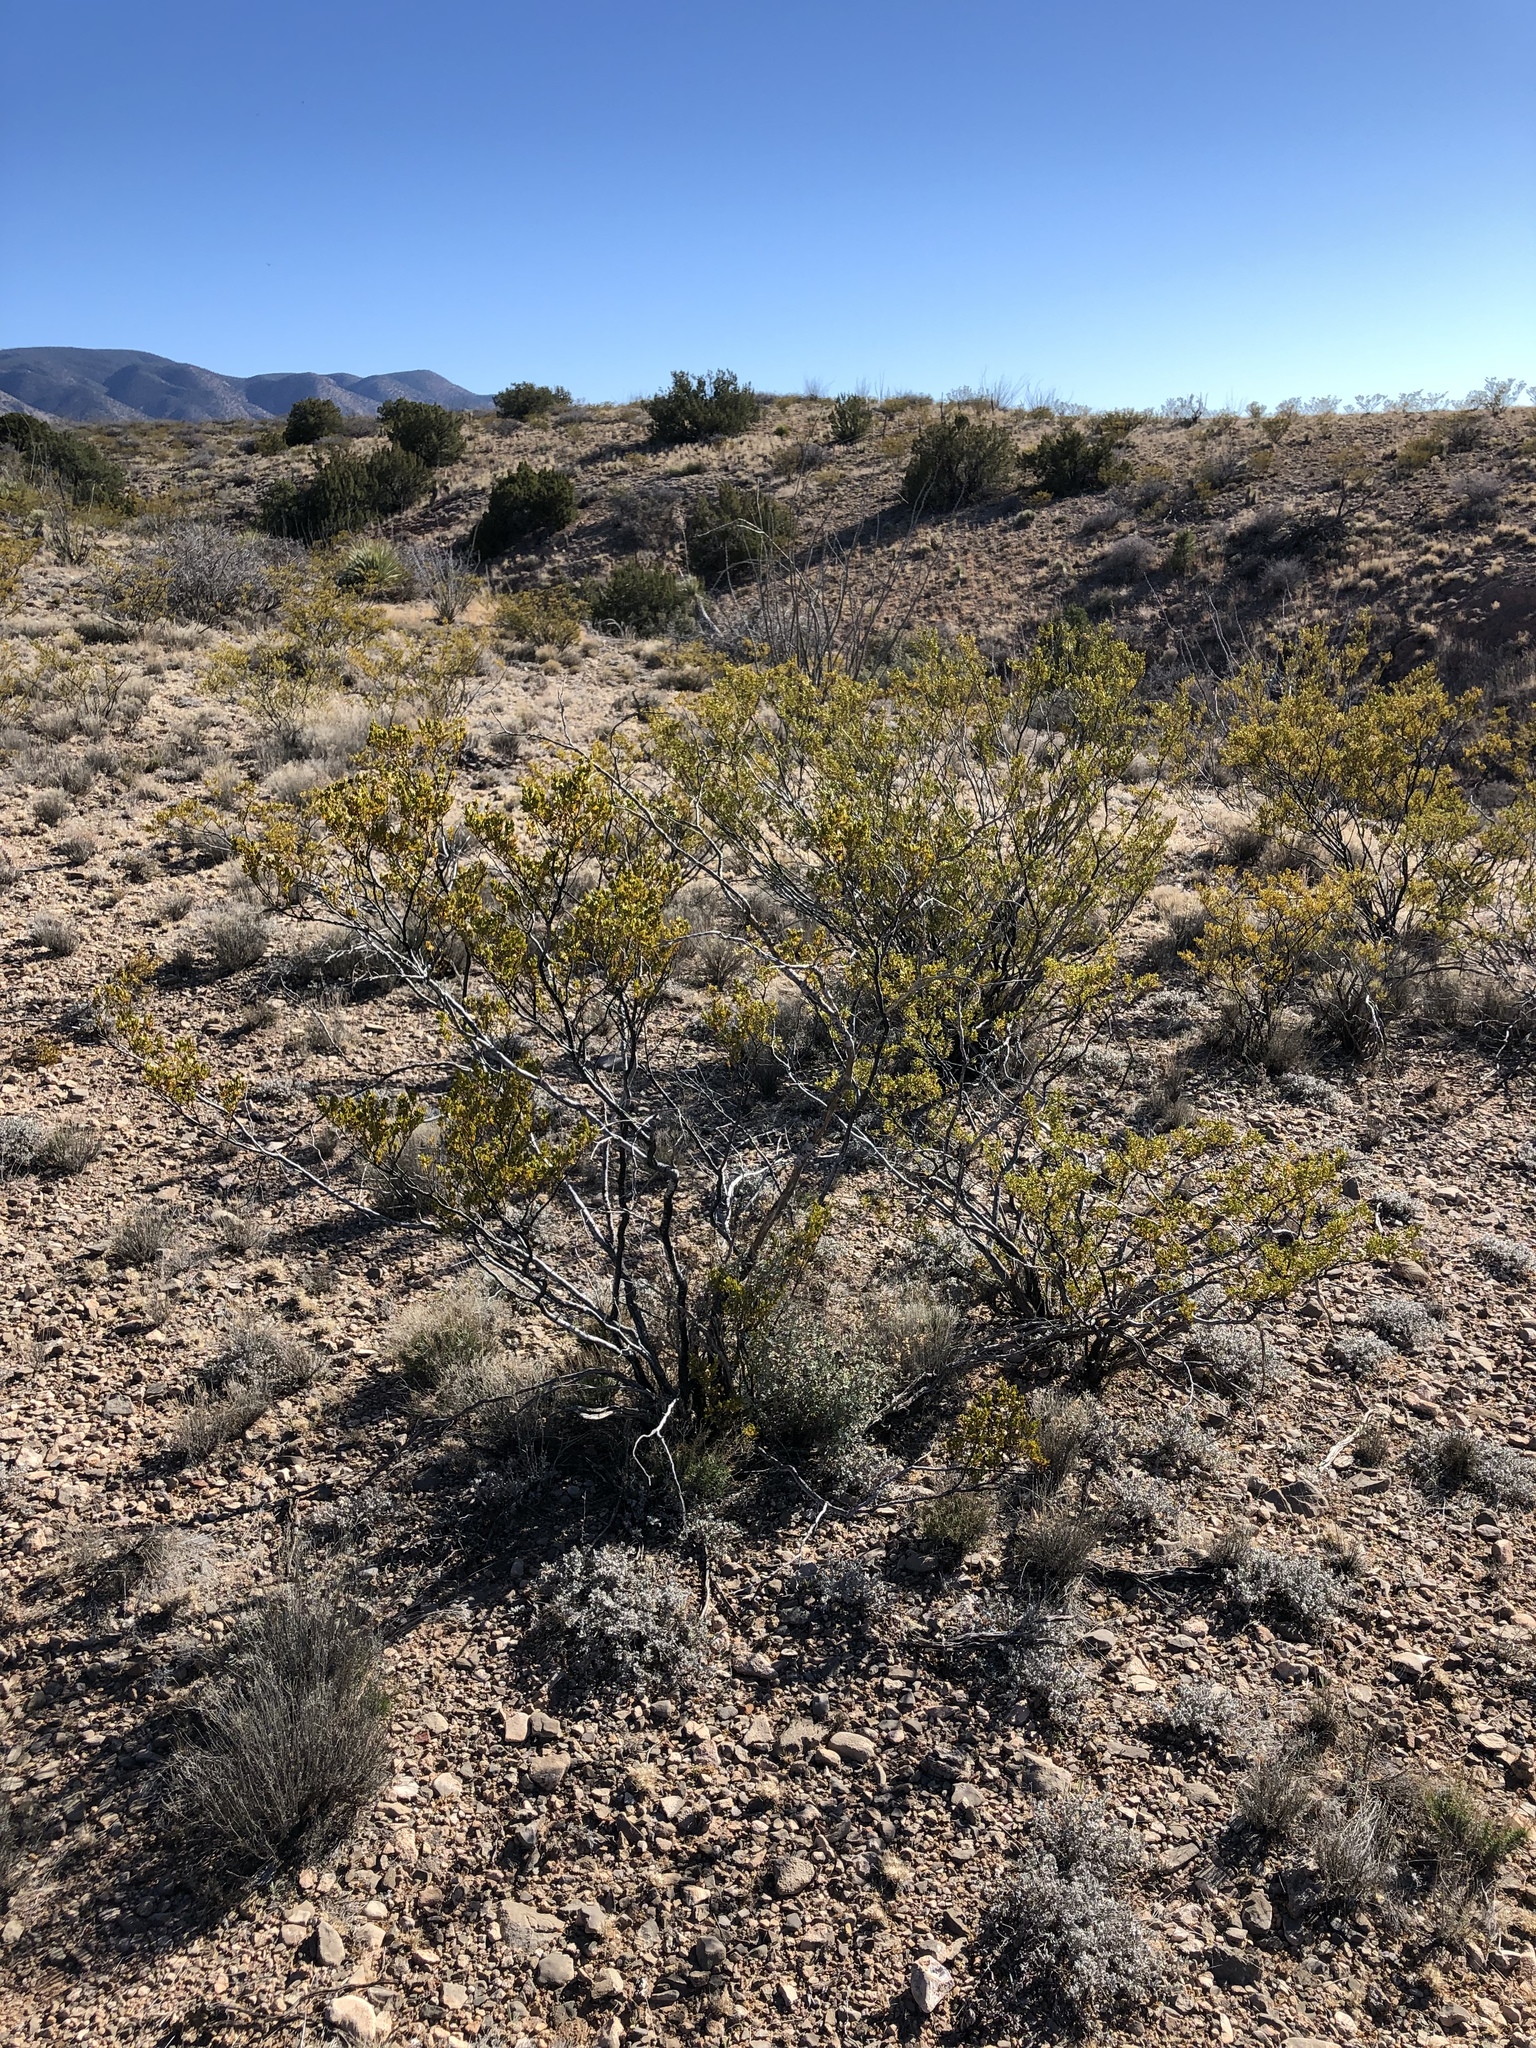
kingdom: Plantae
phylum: Tracheophyta
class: Magnoliopsida
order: Zygophyllales
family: Zygophyllaceae
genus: Larrea
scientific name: Larrea tridentata
